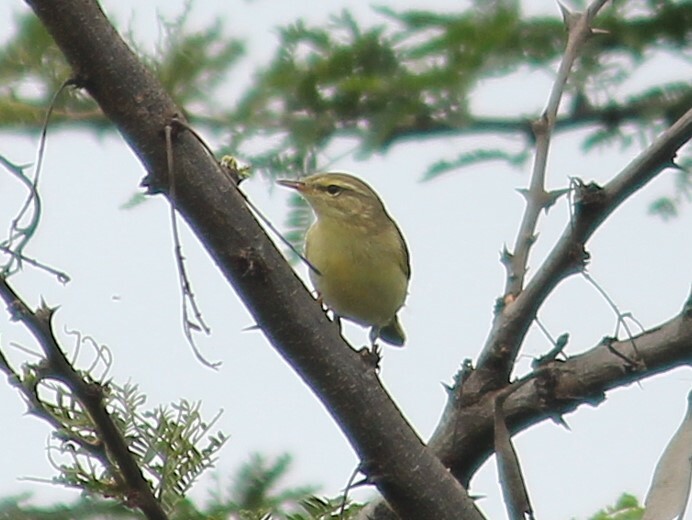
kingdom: Animalia
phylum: Chordata
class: Aves
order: Passeriformes
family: Phylloscopidae
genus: Phylloscopus
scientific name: Phylloscopus trochilus
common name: Willow warbler
